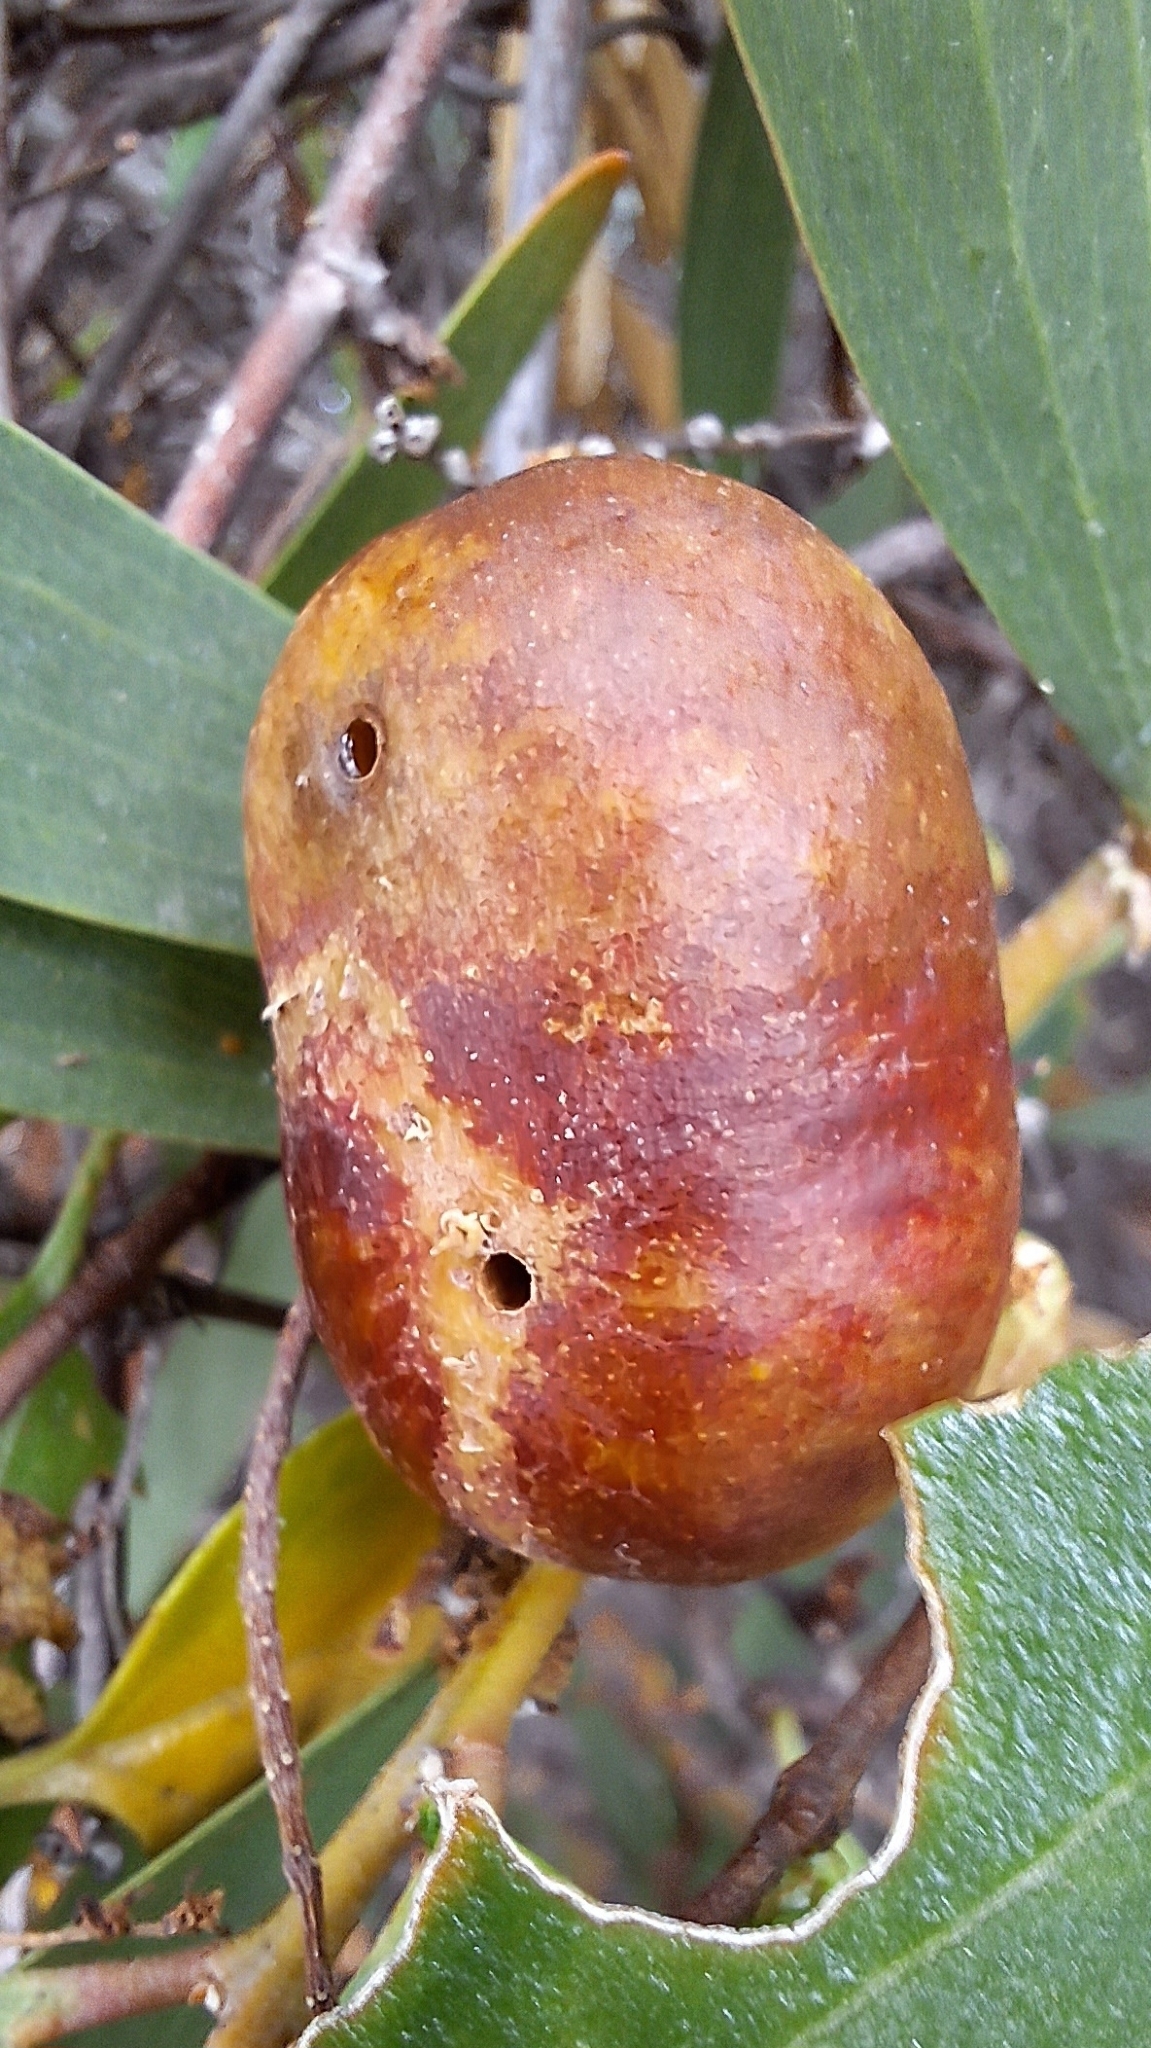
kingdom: Animalia
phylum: Arthropoda
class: Insecta
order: Hymenoptera
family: Pteromalidae
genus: Trichilogaster
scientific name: Trichilogaster acaciaelongifoliae
